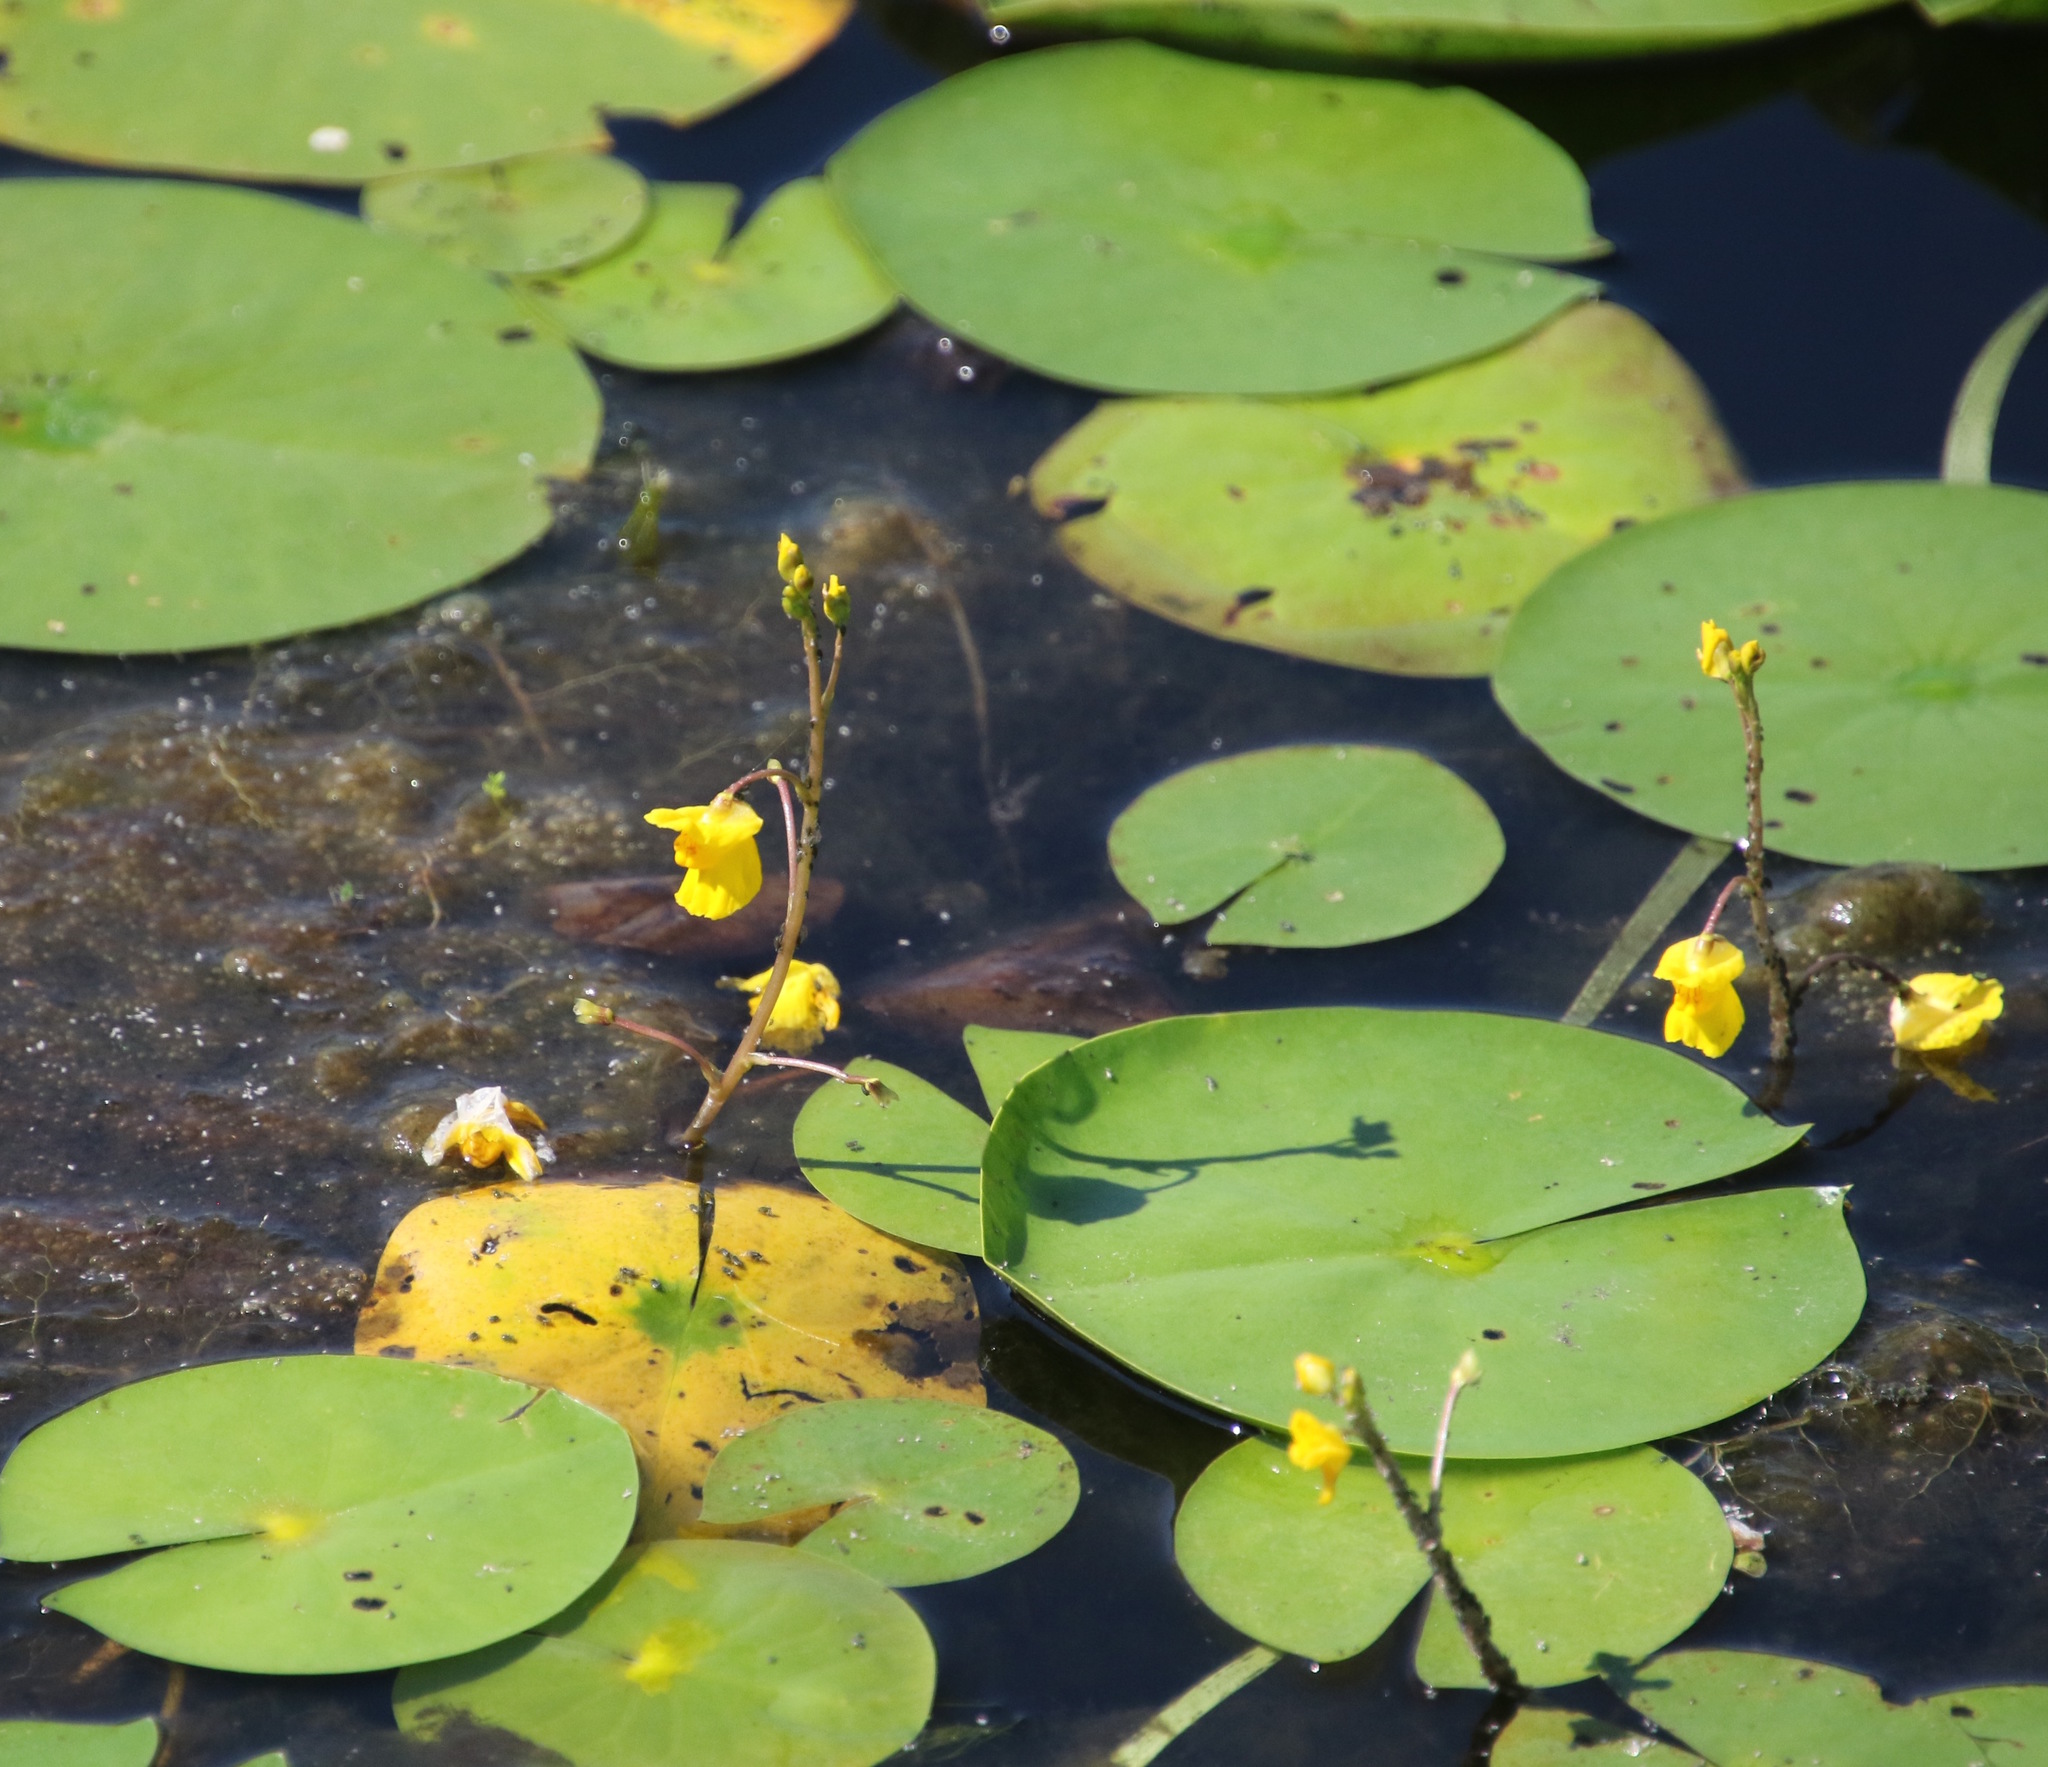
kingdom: Plantae
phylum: Tracheophyta
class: Magnoliopsida
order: Lamiales
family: Lentibulariaceae
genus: Utricularia
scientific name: Utricularia macrorhiza
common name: Common bladderwort
